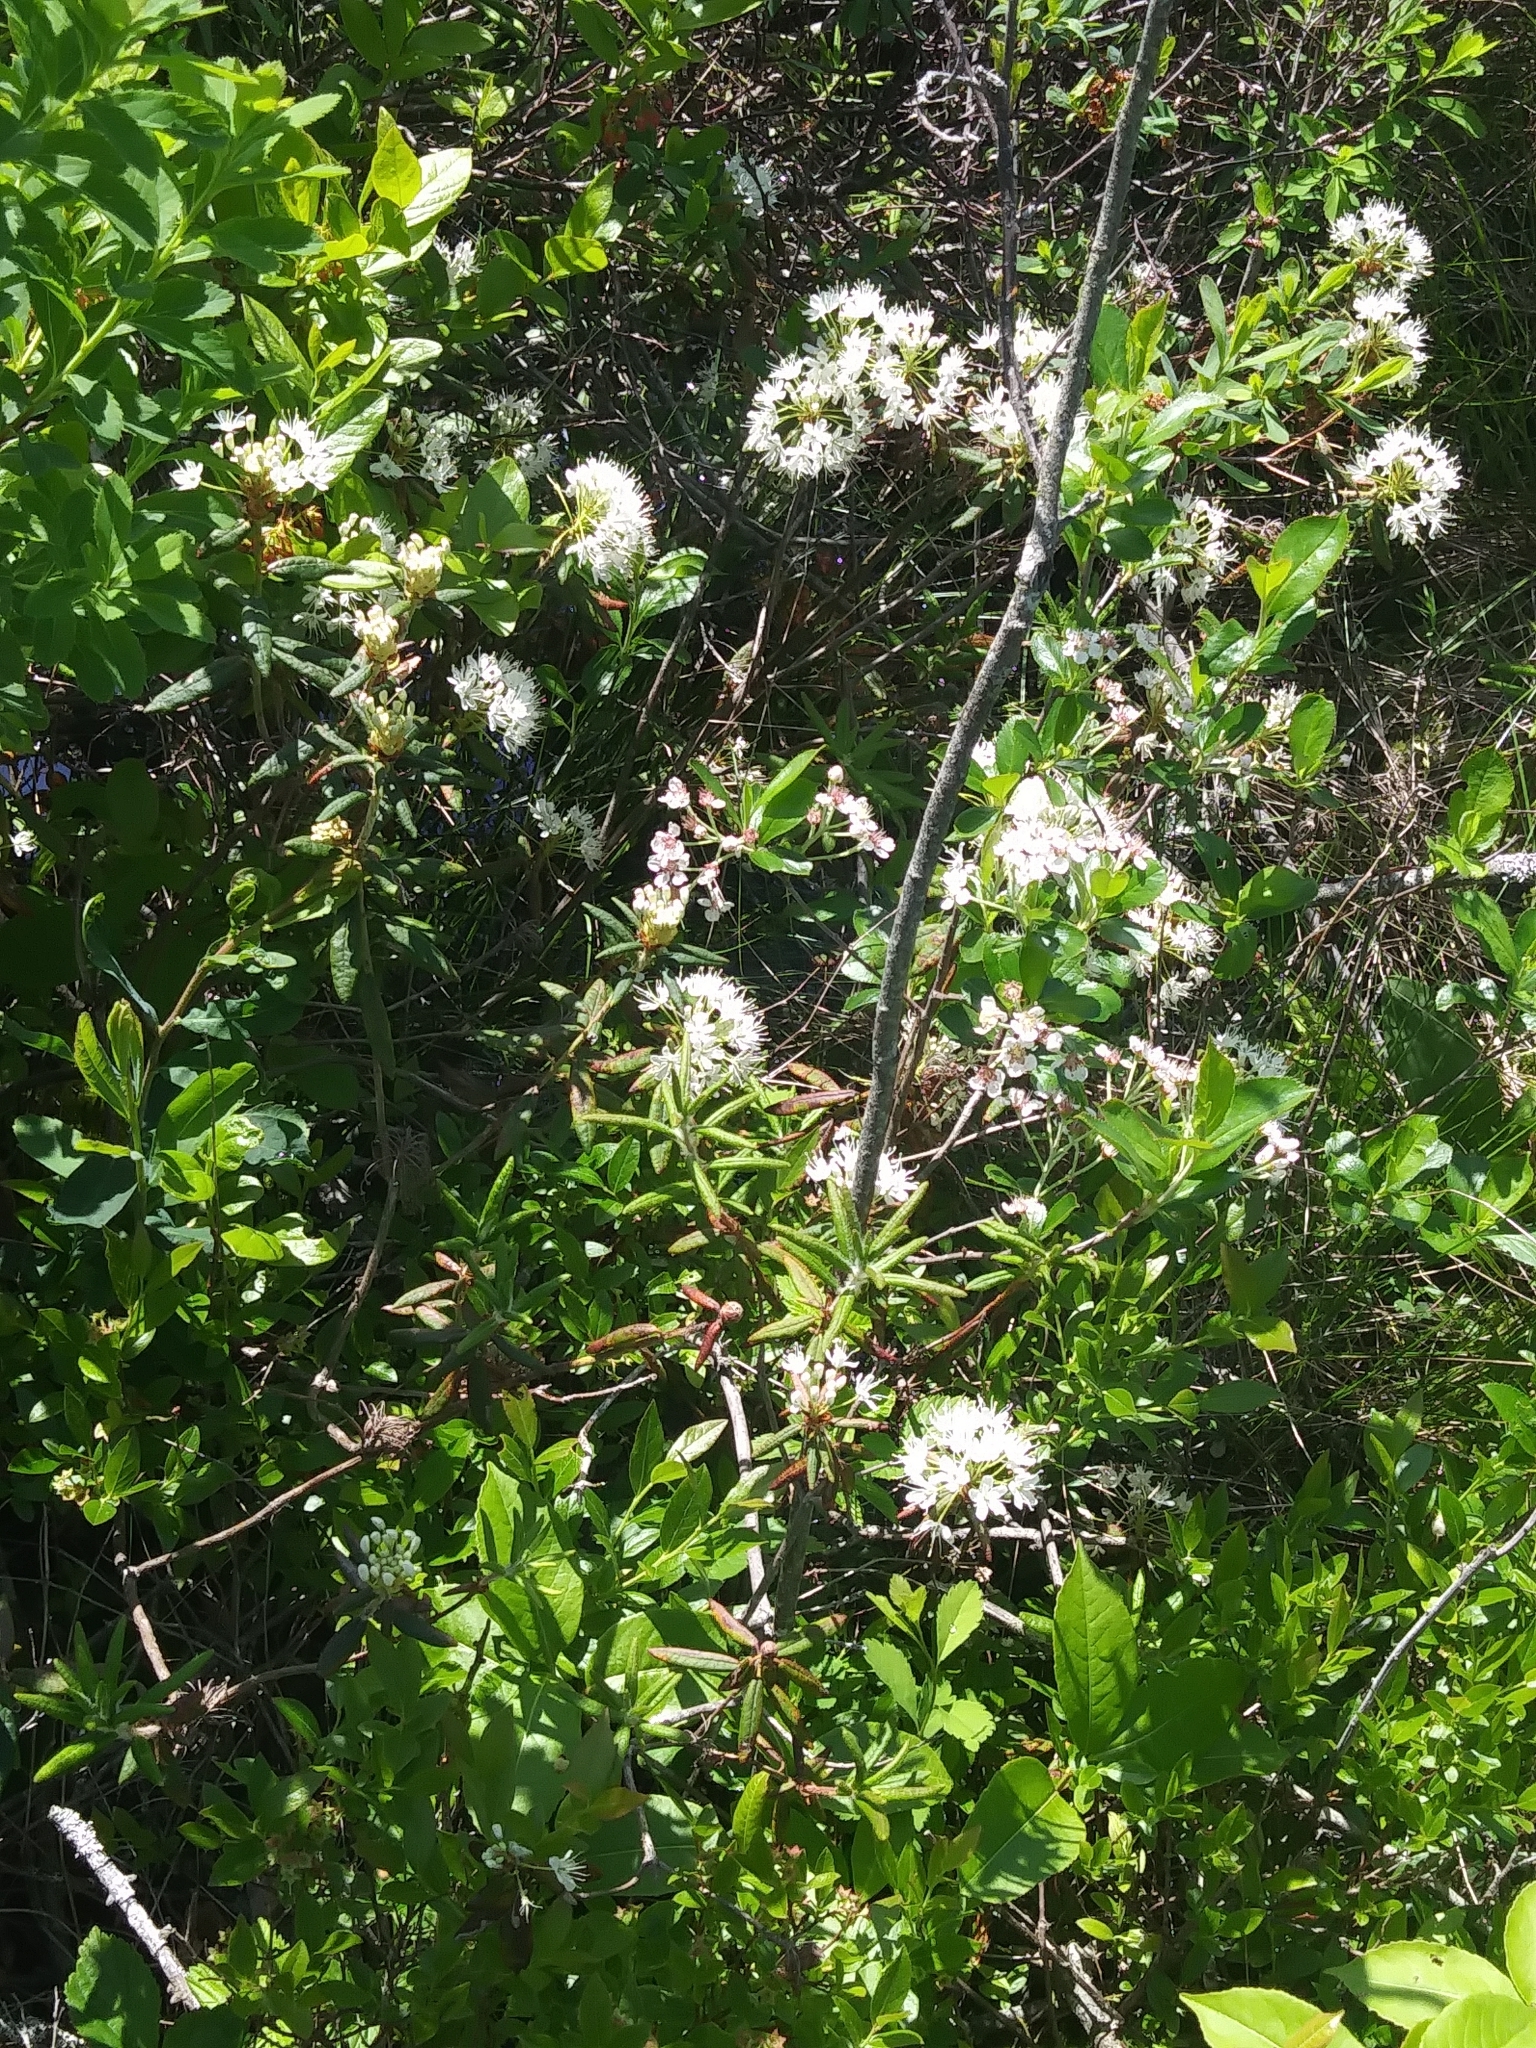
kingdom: Plantae
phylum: Tracheophyta
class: Magnoliopsida
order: Ericales
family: Ericaceae
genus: Rhododendron
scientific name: Rhododendron groenlandicum
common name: Bog labrador tea
